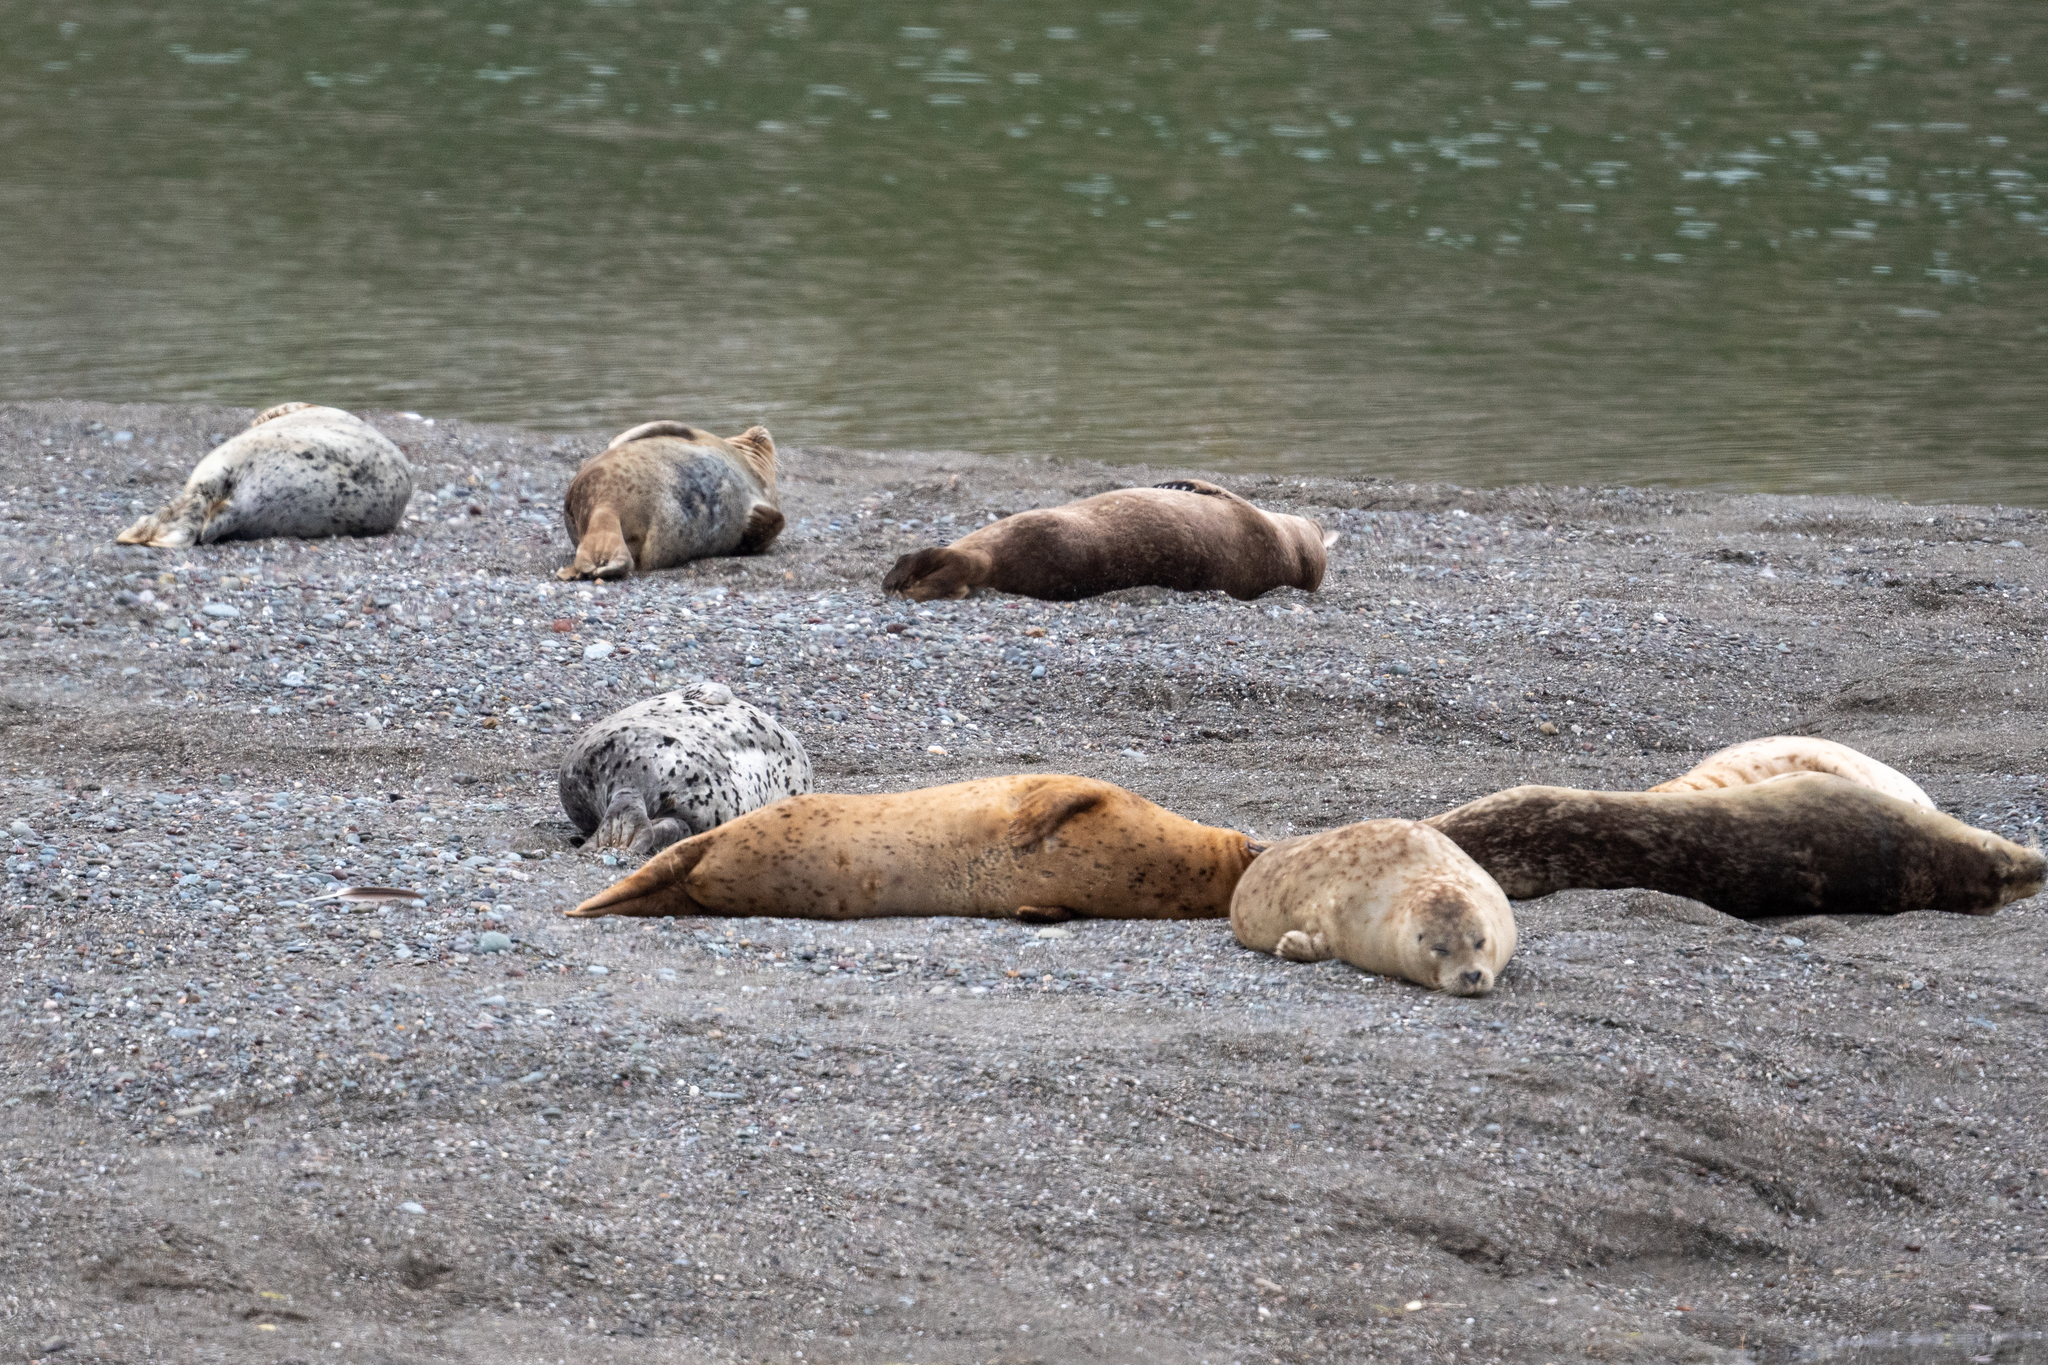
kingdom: Animalia
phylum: Chordata
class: Mammalia
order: Carnivora
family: Phocidae
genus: Phoca
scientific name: Phoca vitulina
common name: Harbor seal
